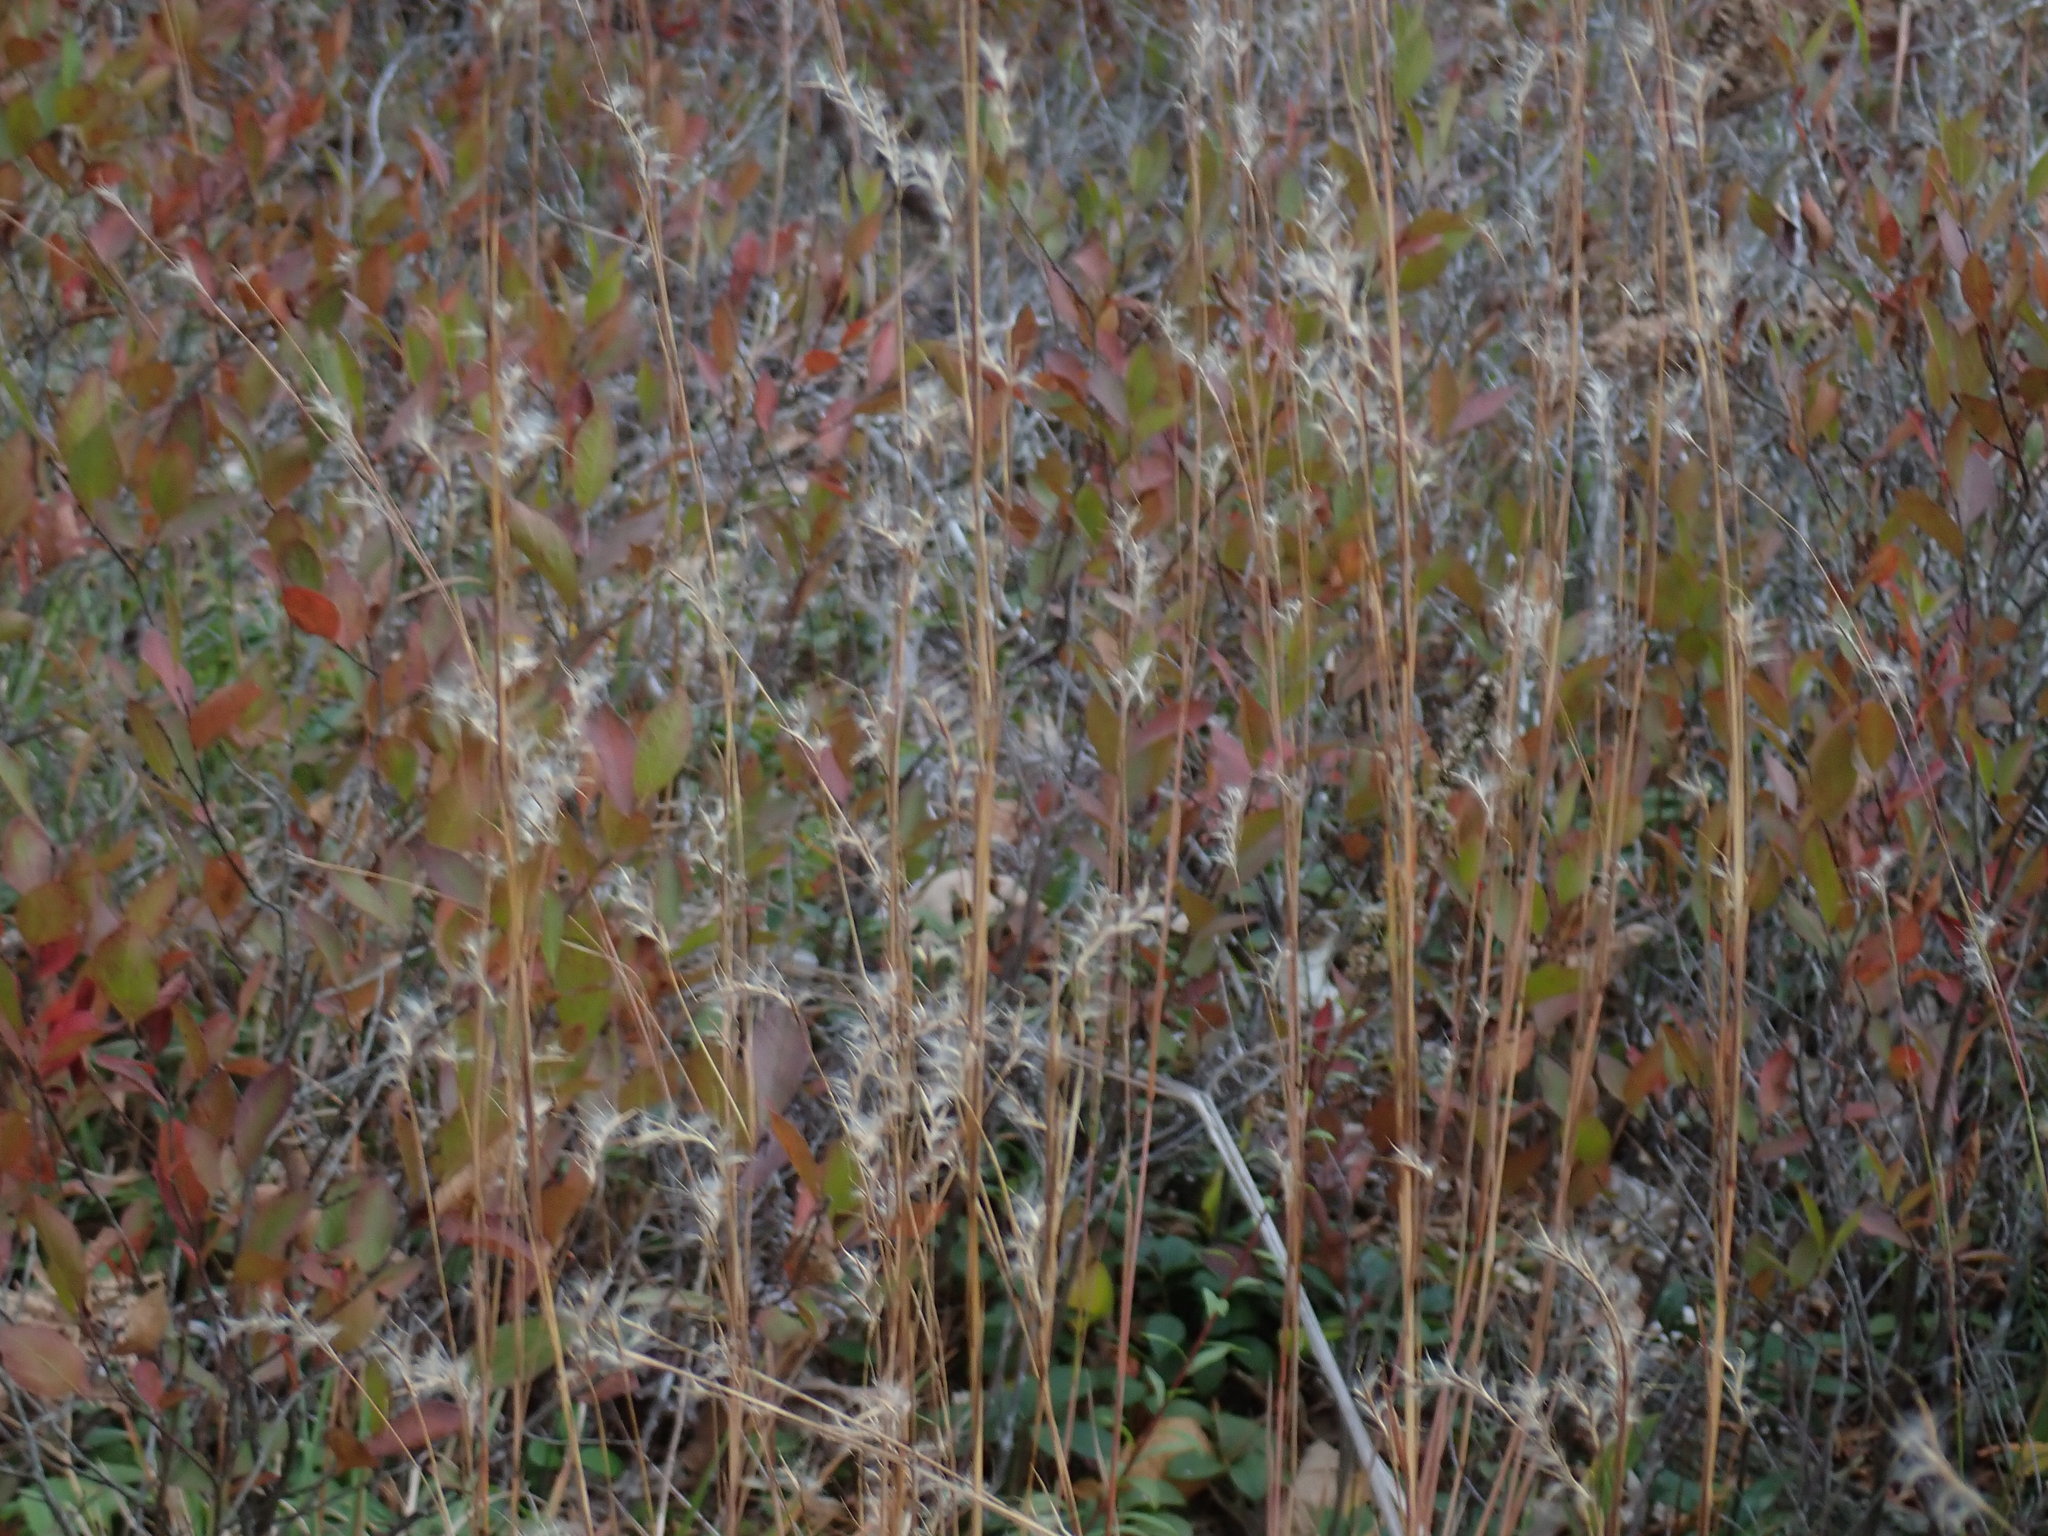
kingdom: Plantae
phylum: Tracheophyta
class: Liliopsida
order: Poales
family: Poaceae
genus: Schizachyrium
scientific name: Schizachyrium scoparium
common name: Little bluestem
